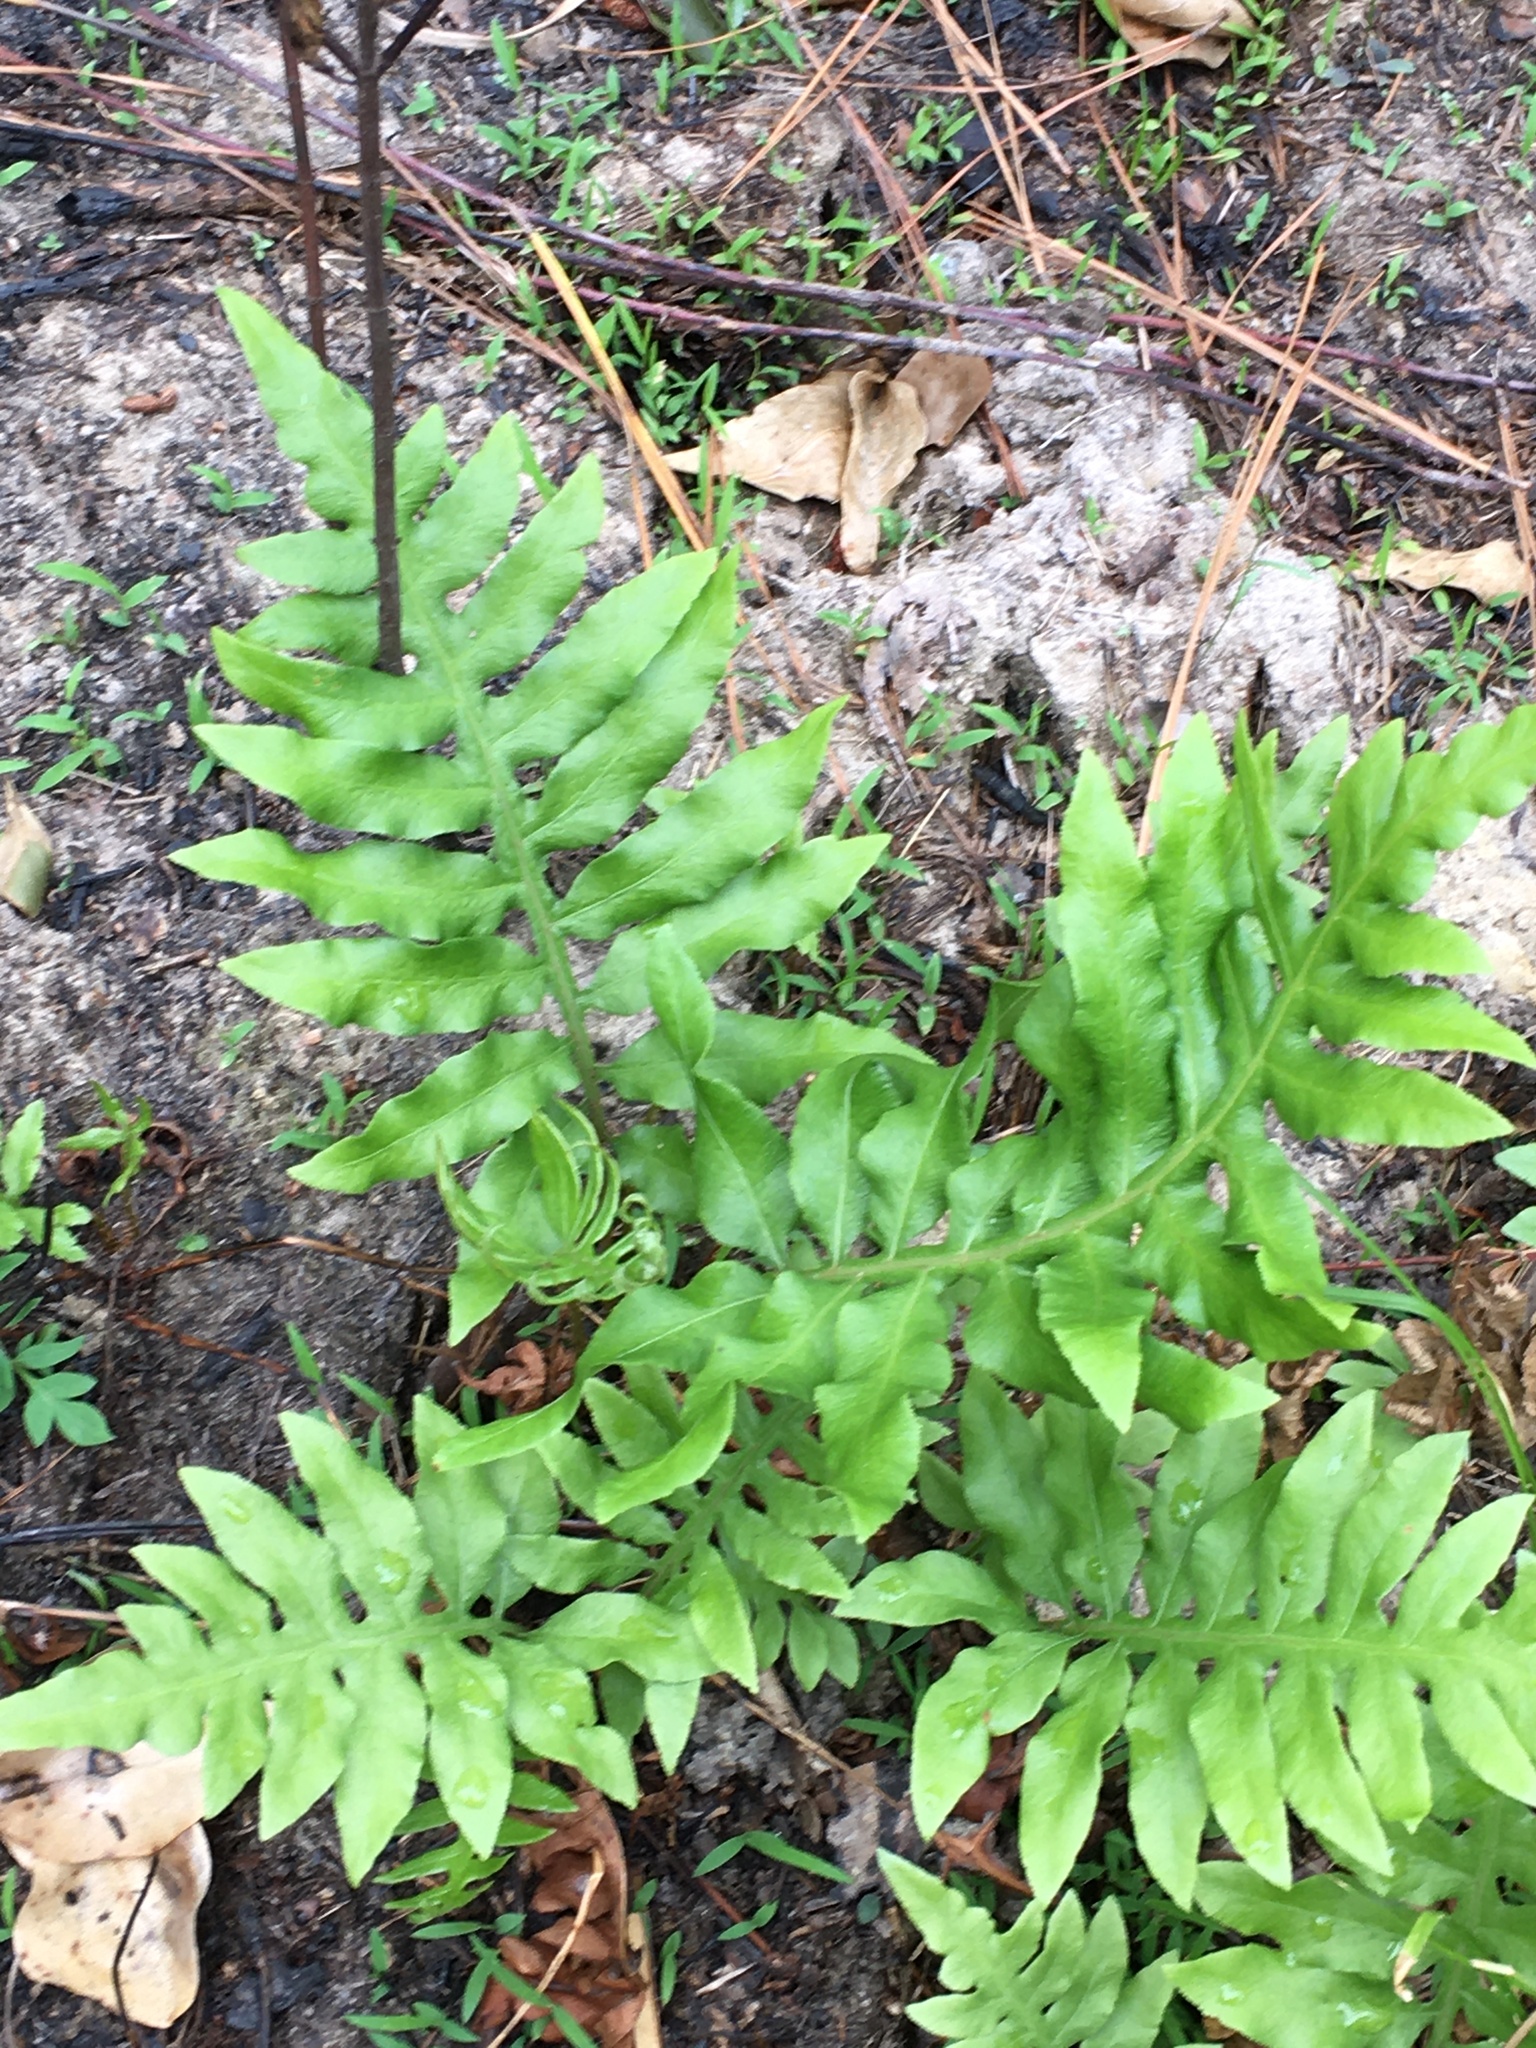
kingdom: Plantae
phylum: Tracheophyta
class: Polypodiopsida
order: Polypodiales
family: Blechnaceae
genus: Lorinseria
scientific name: Lorinseria areolata
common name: Dwarf chain fern
